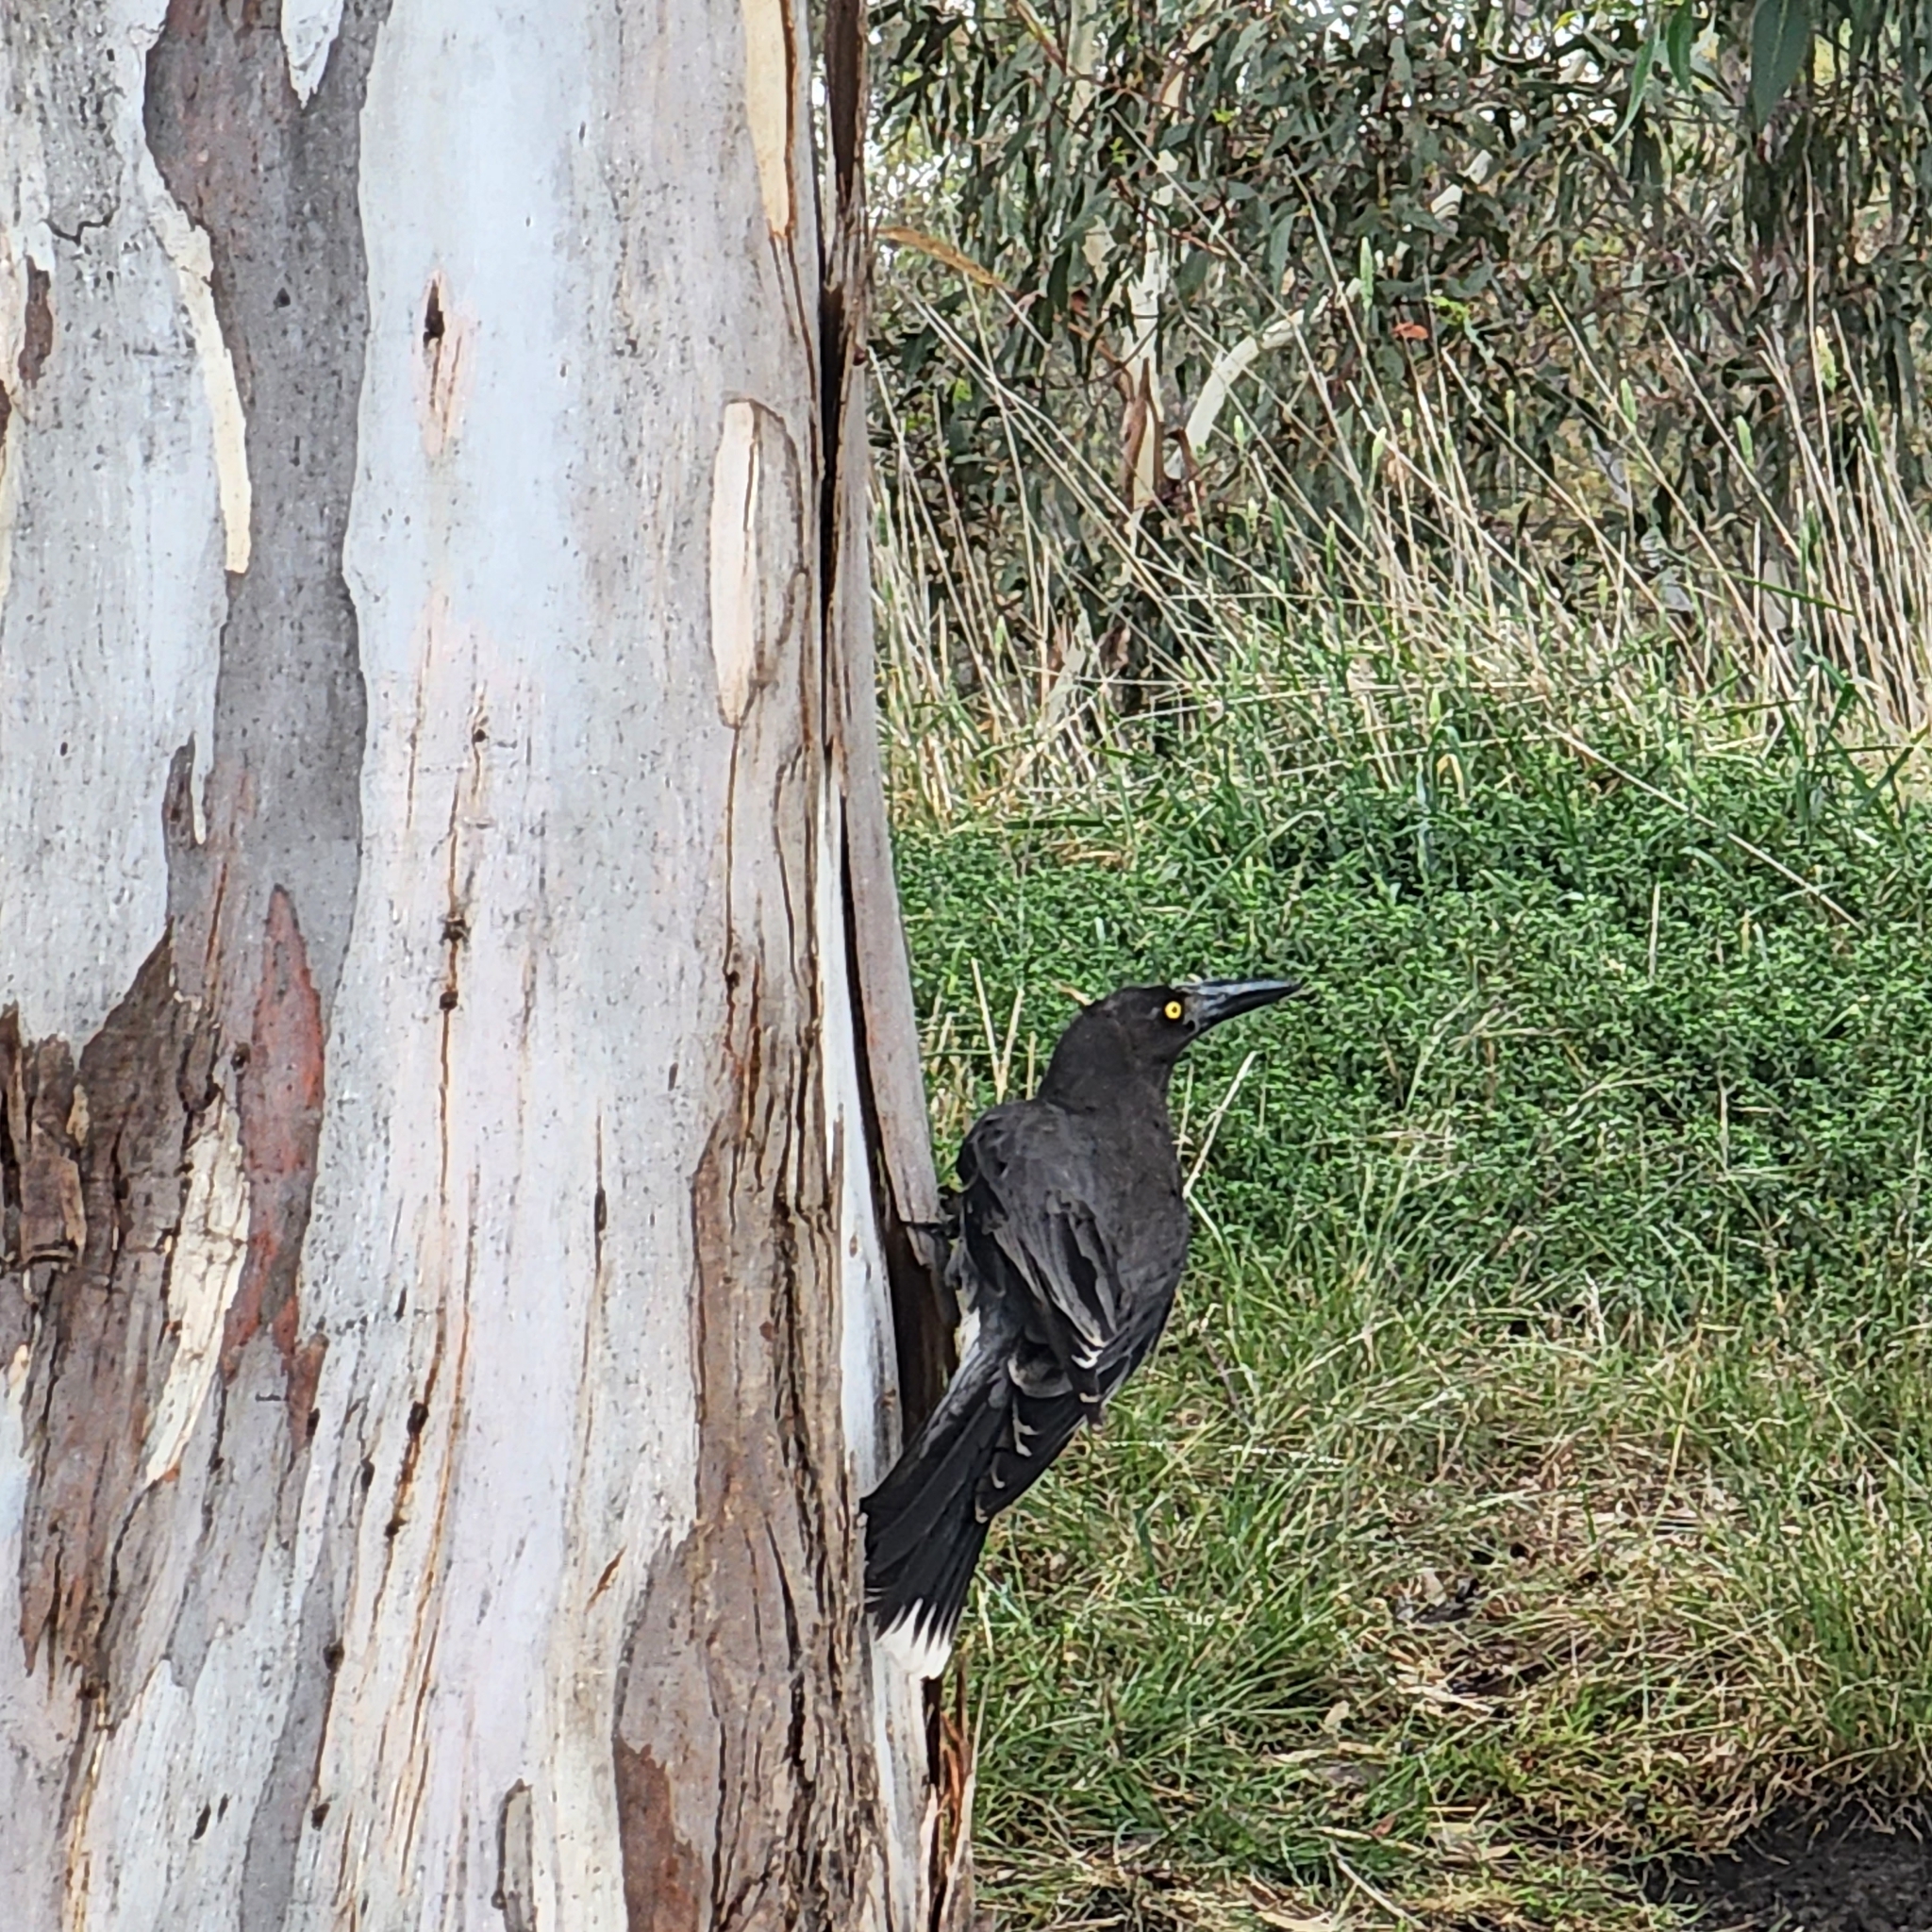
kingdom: Animalia
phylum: Chordata
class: Aves
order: Passeriformes
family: Cracticidae
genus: Strepera
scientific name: Strepera versicolor
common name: Grey currawong
